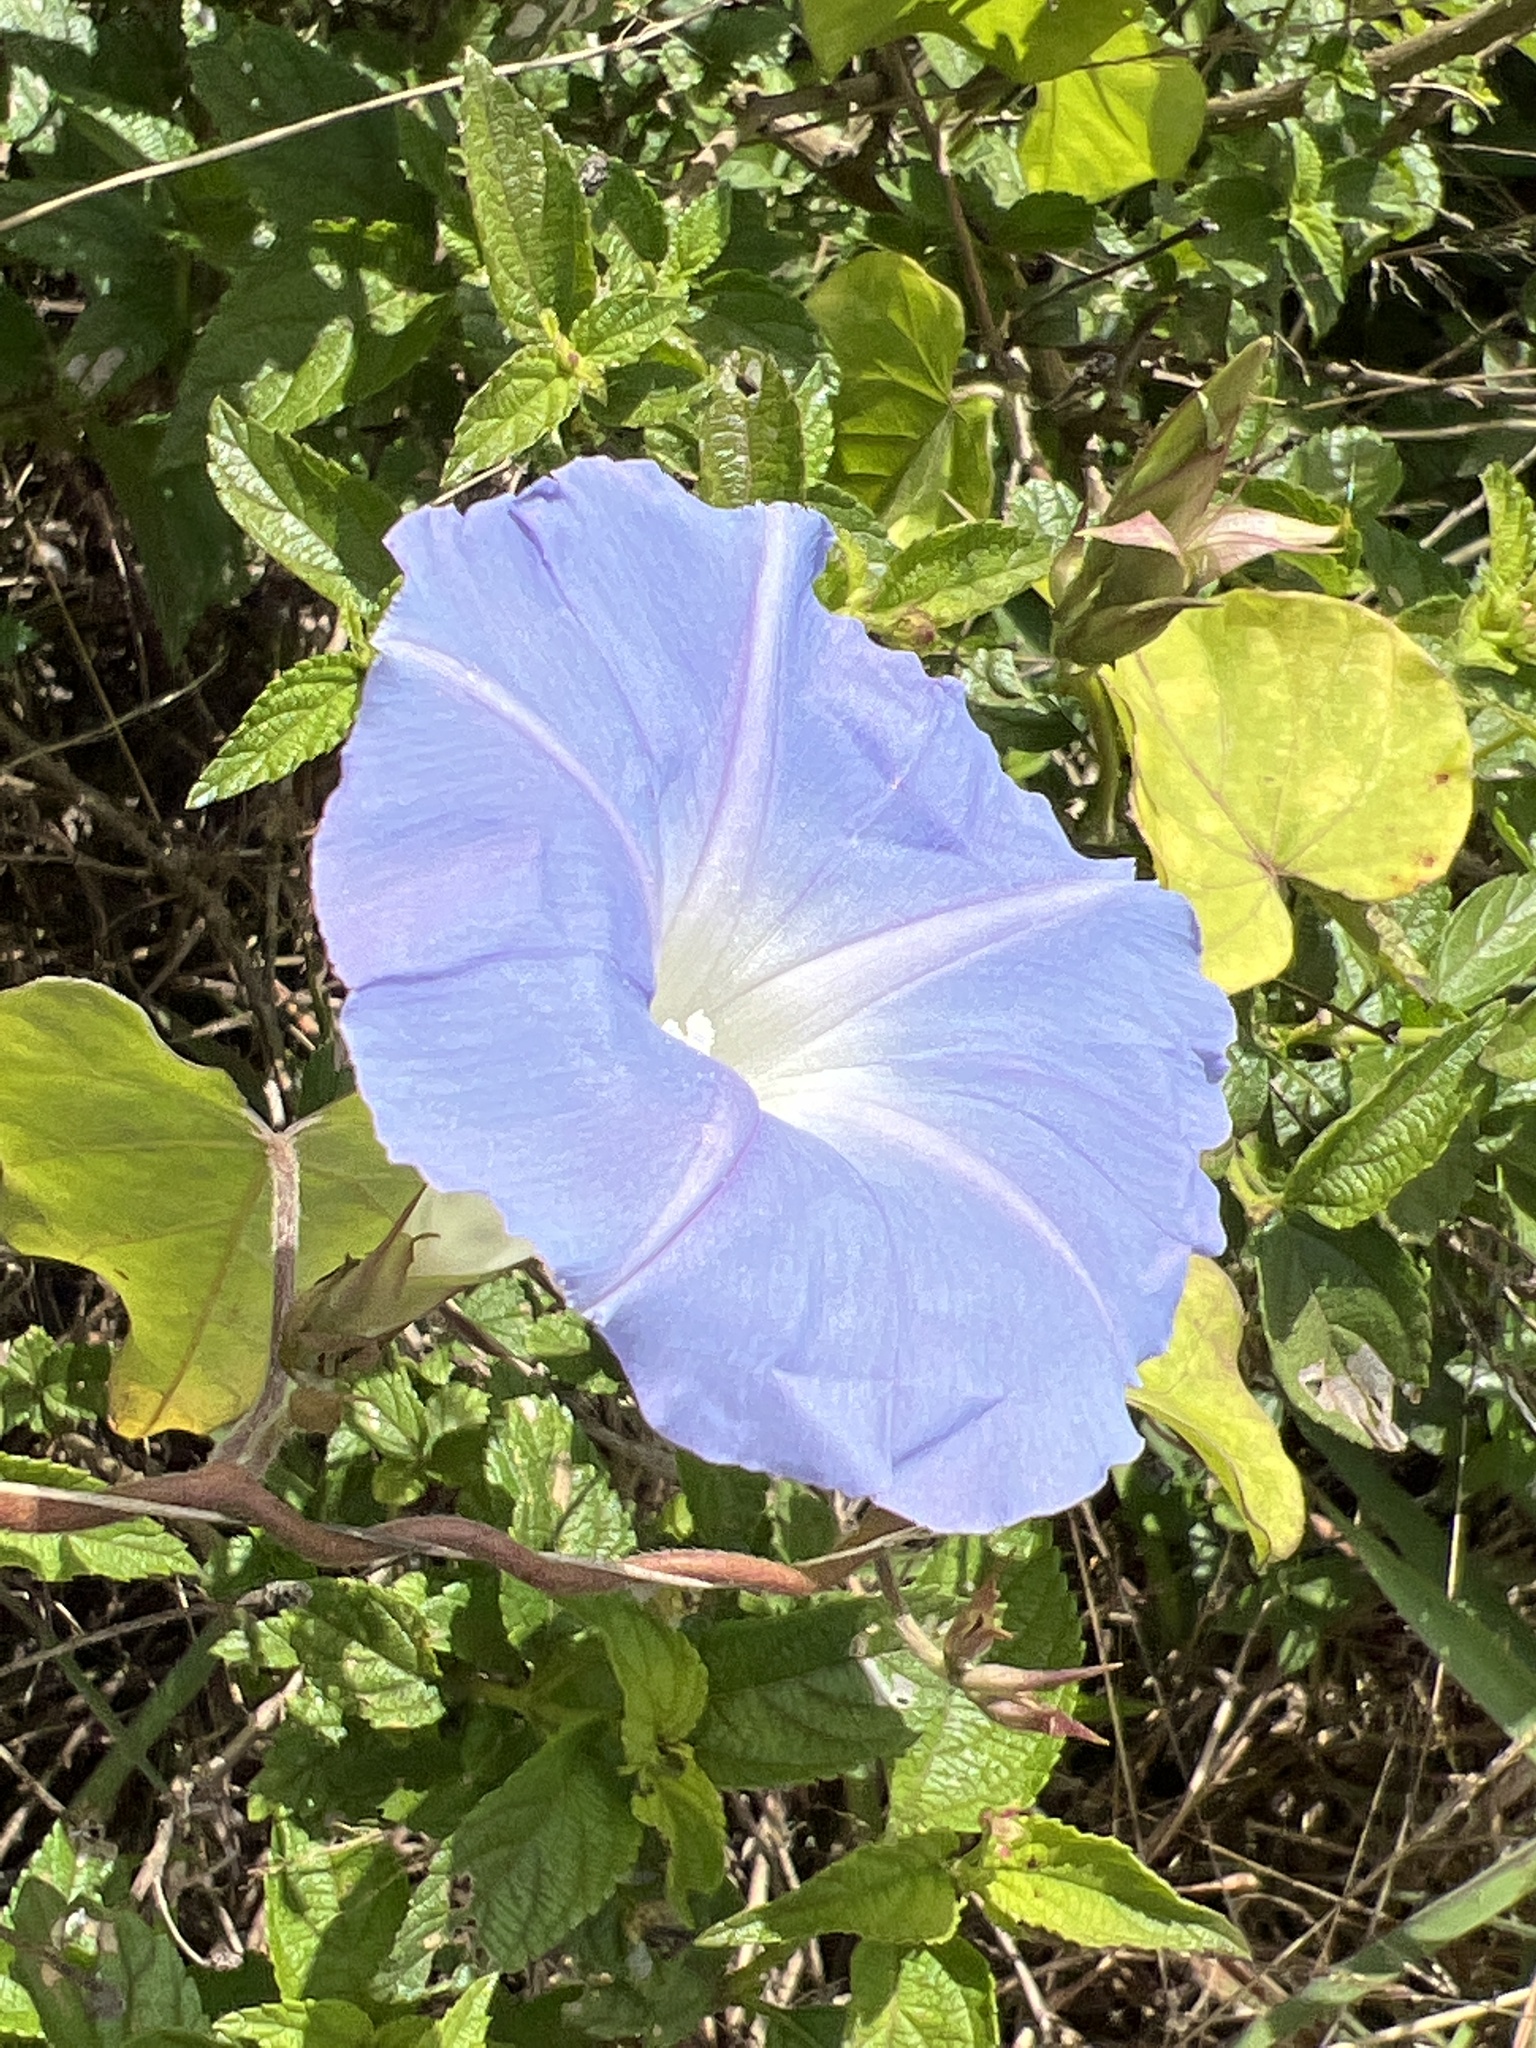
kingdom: Plantae
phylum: Tracheophyta
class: Magnoliopsida
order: Solanales
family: Convolvulaceae
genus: Ipomoea
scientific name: Ipomoea indica
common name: Blue dawnflower
